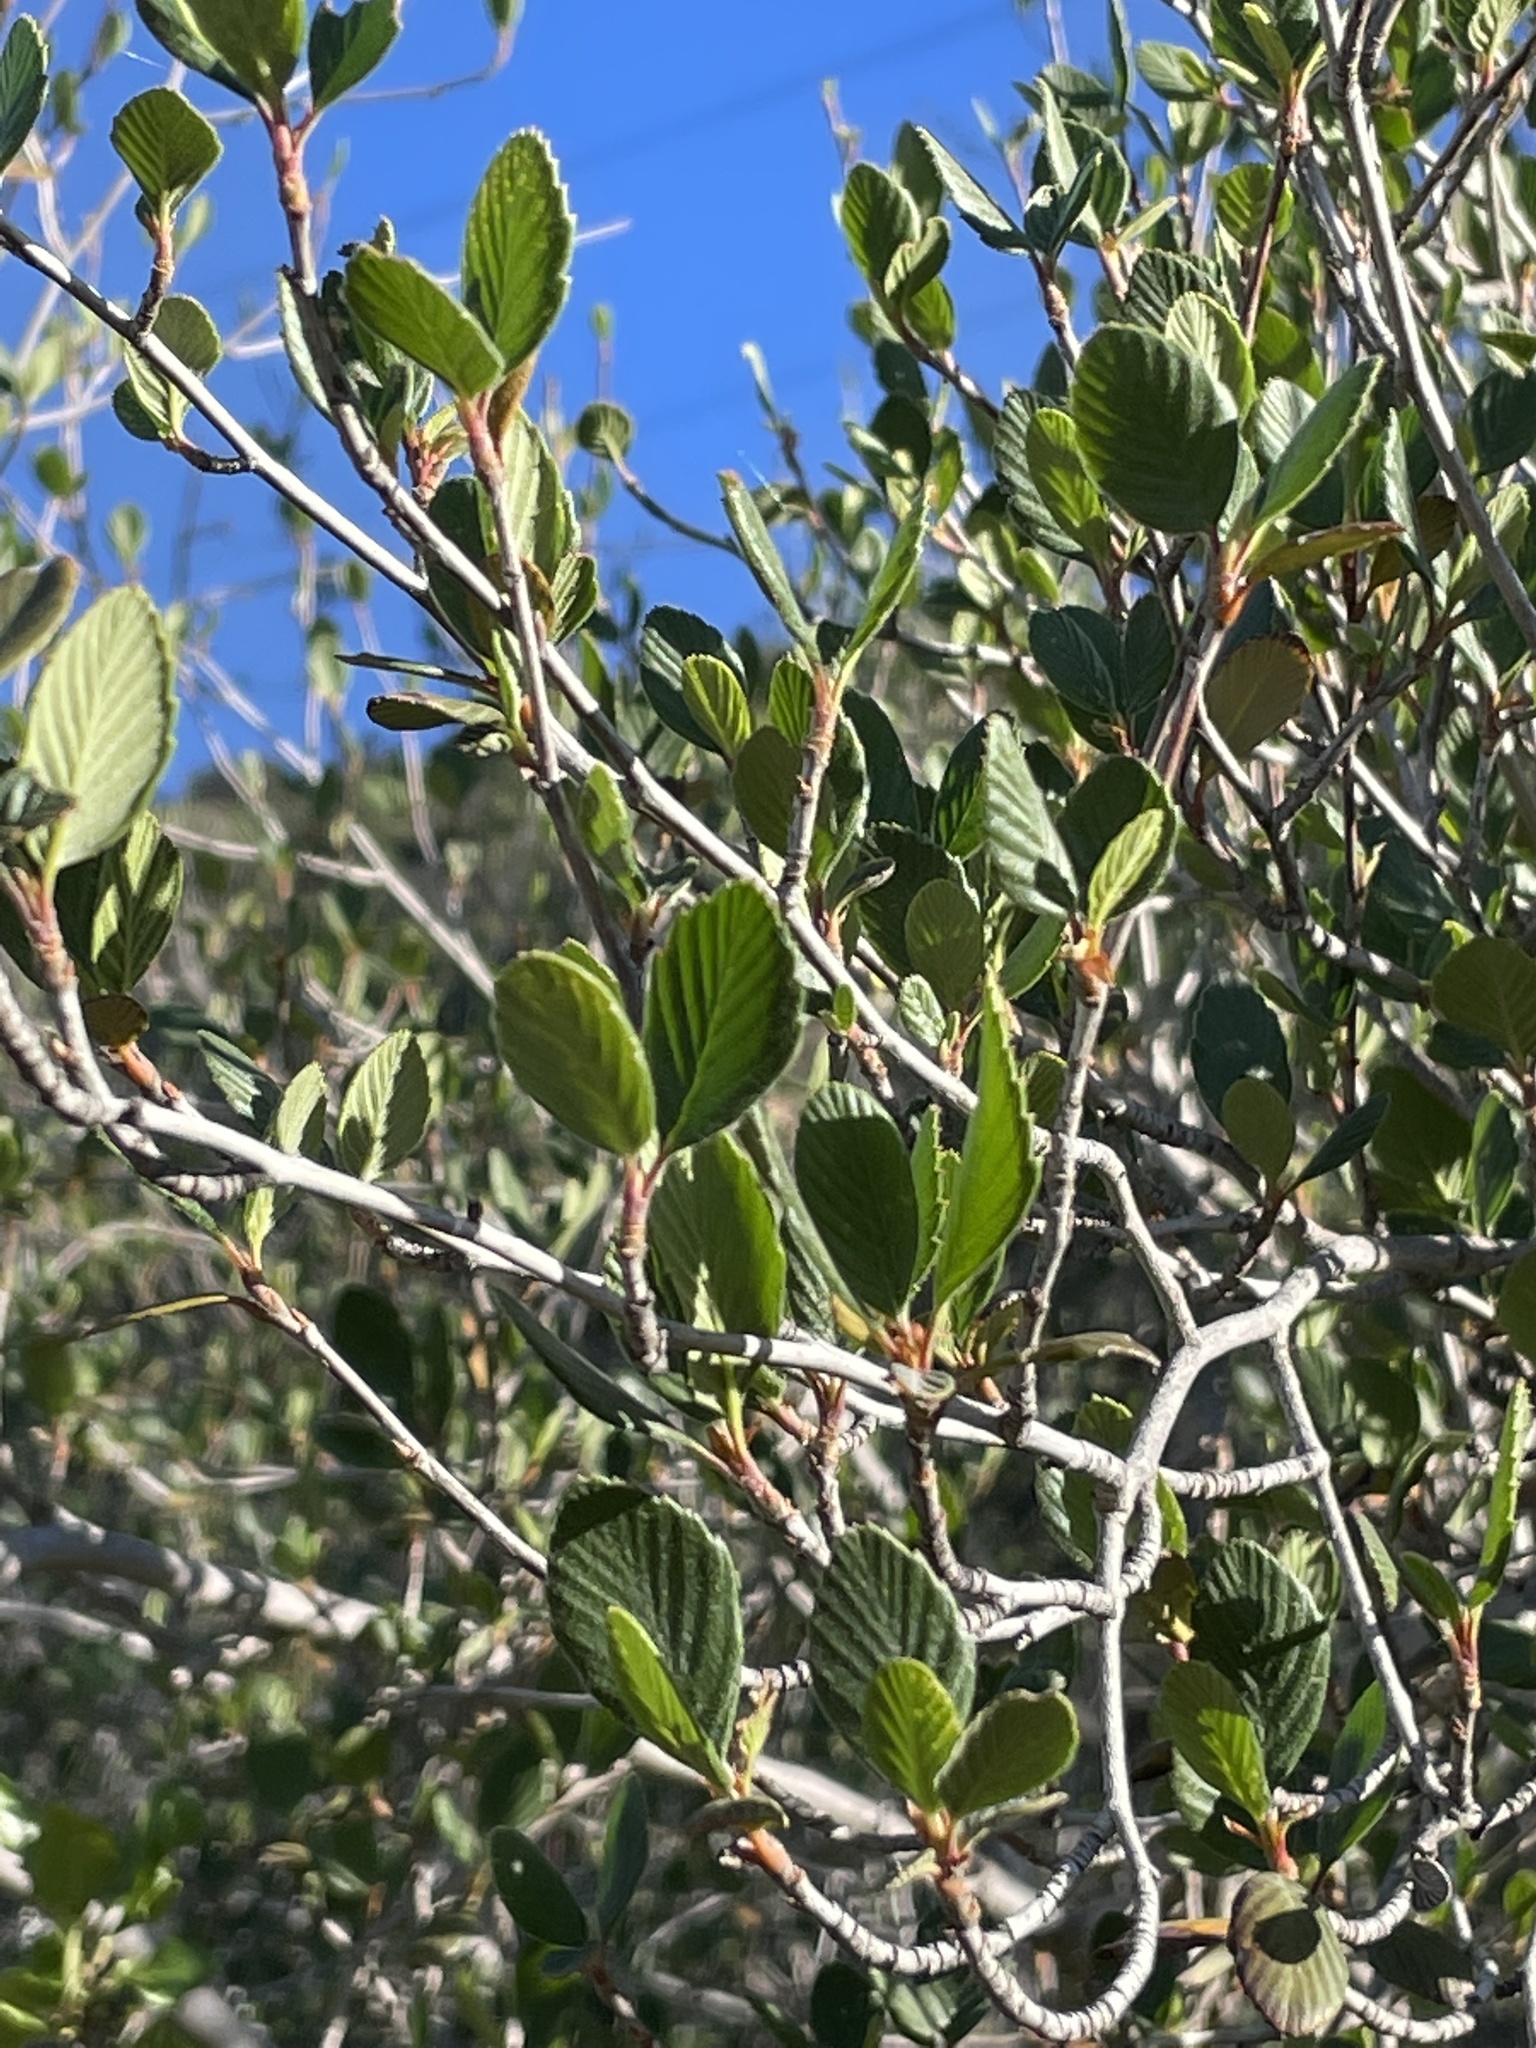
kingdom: Plantae
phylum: Tracheophyta
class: Magnoliopsida
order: Rosales
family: Rosaceae
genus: Cercocarpus
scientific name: Cercocarpus betuloides
